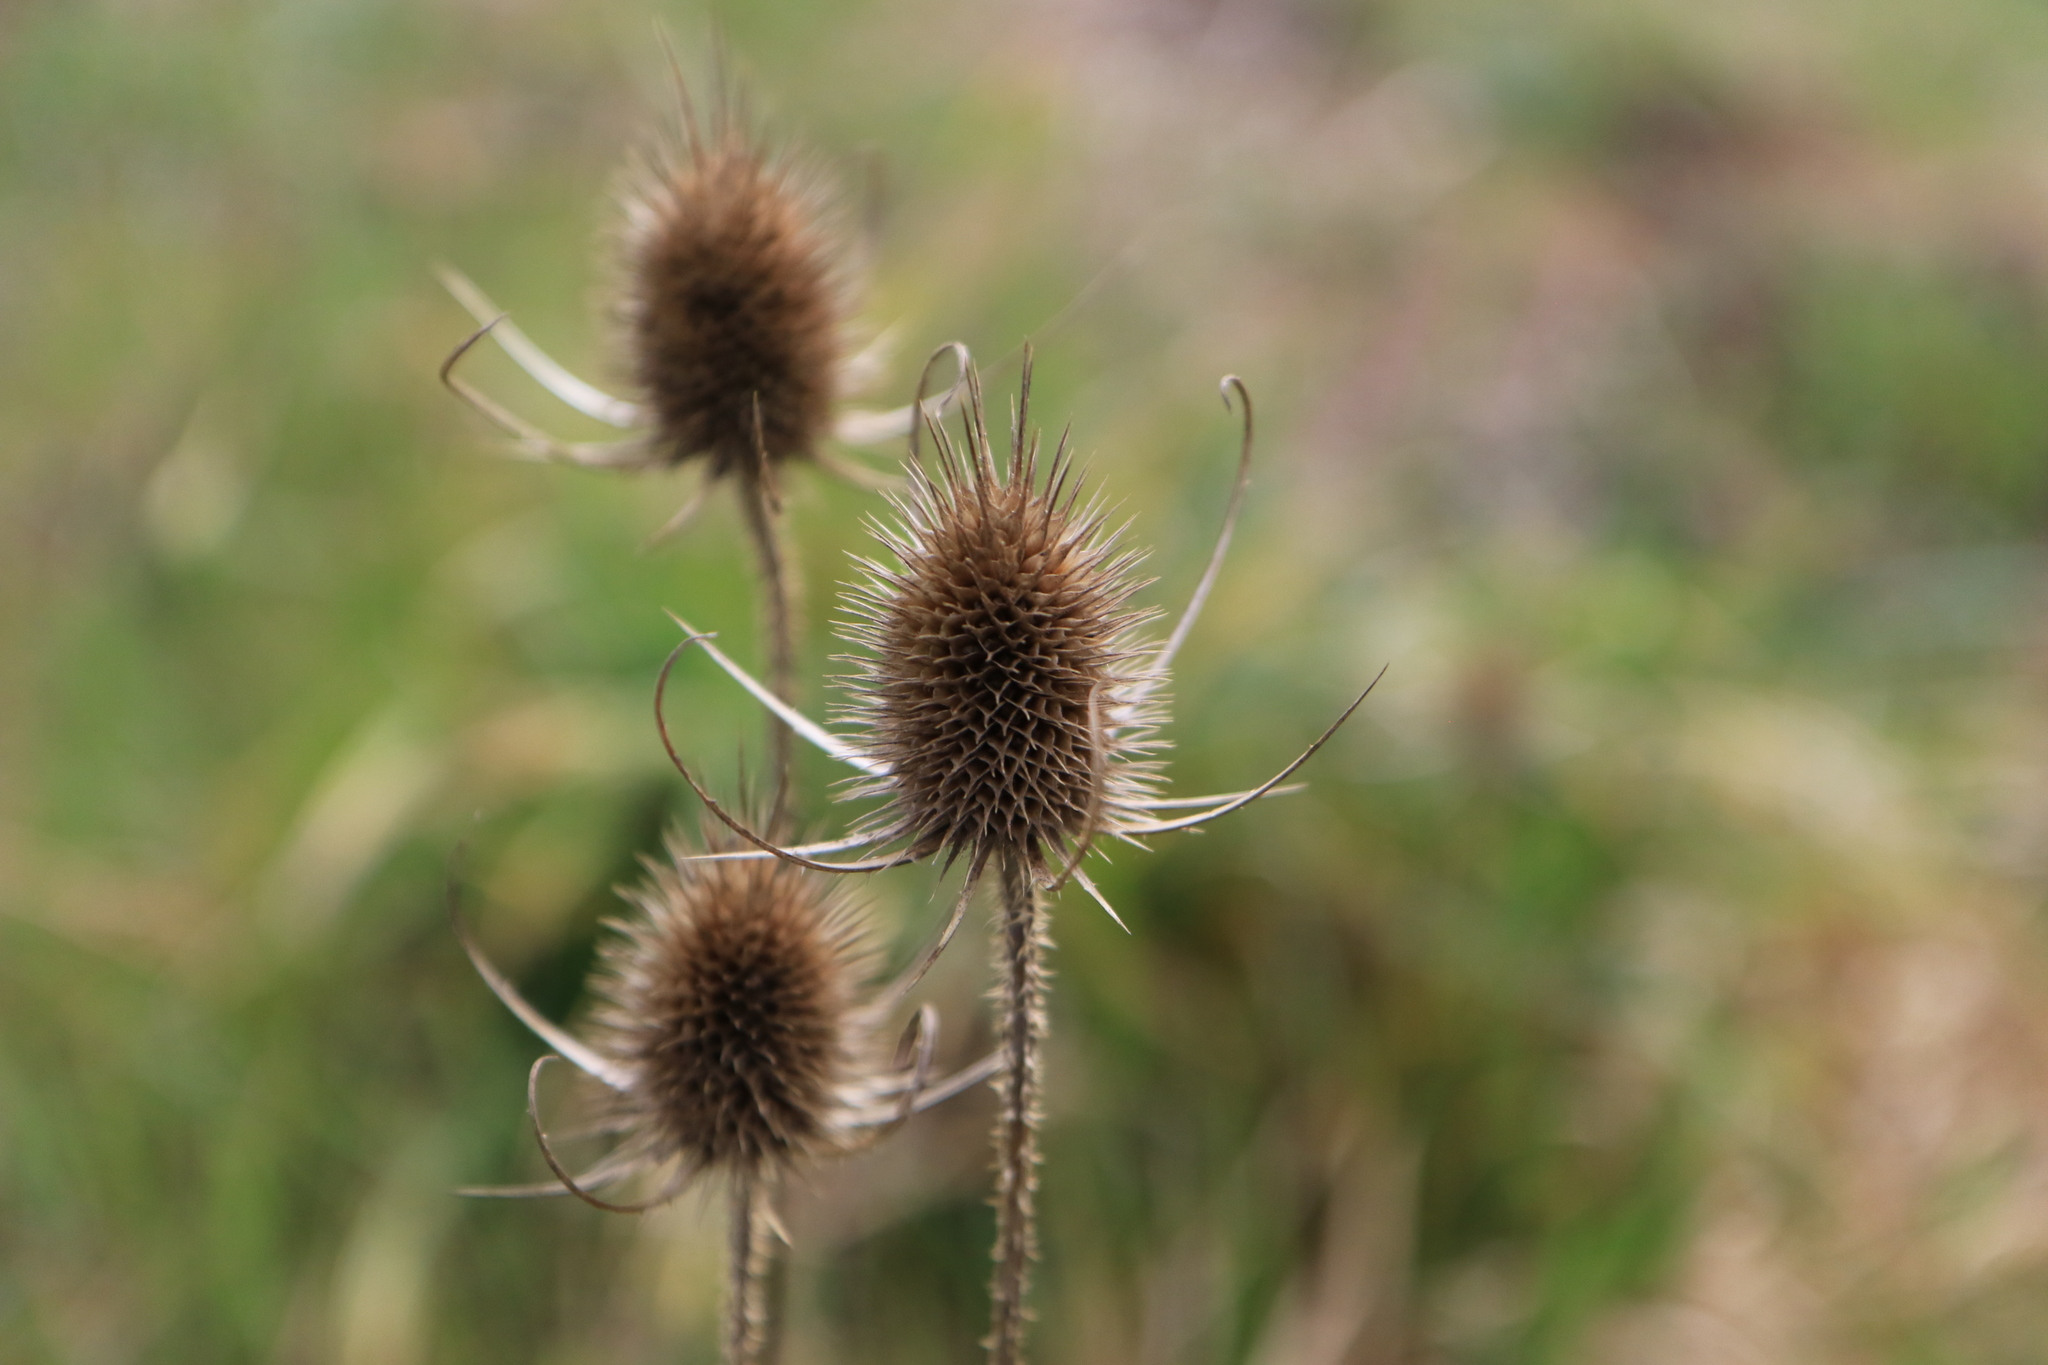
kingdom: Plantae
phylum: Tracheophyta
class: Magnoliopsida
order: Dipsacales
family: Caprifoliaceae
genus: Dipsacus
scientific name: Dipsacus fullonum
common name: Teasel
